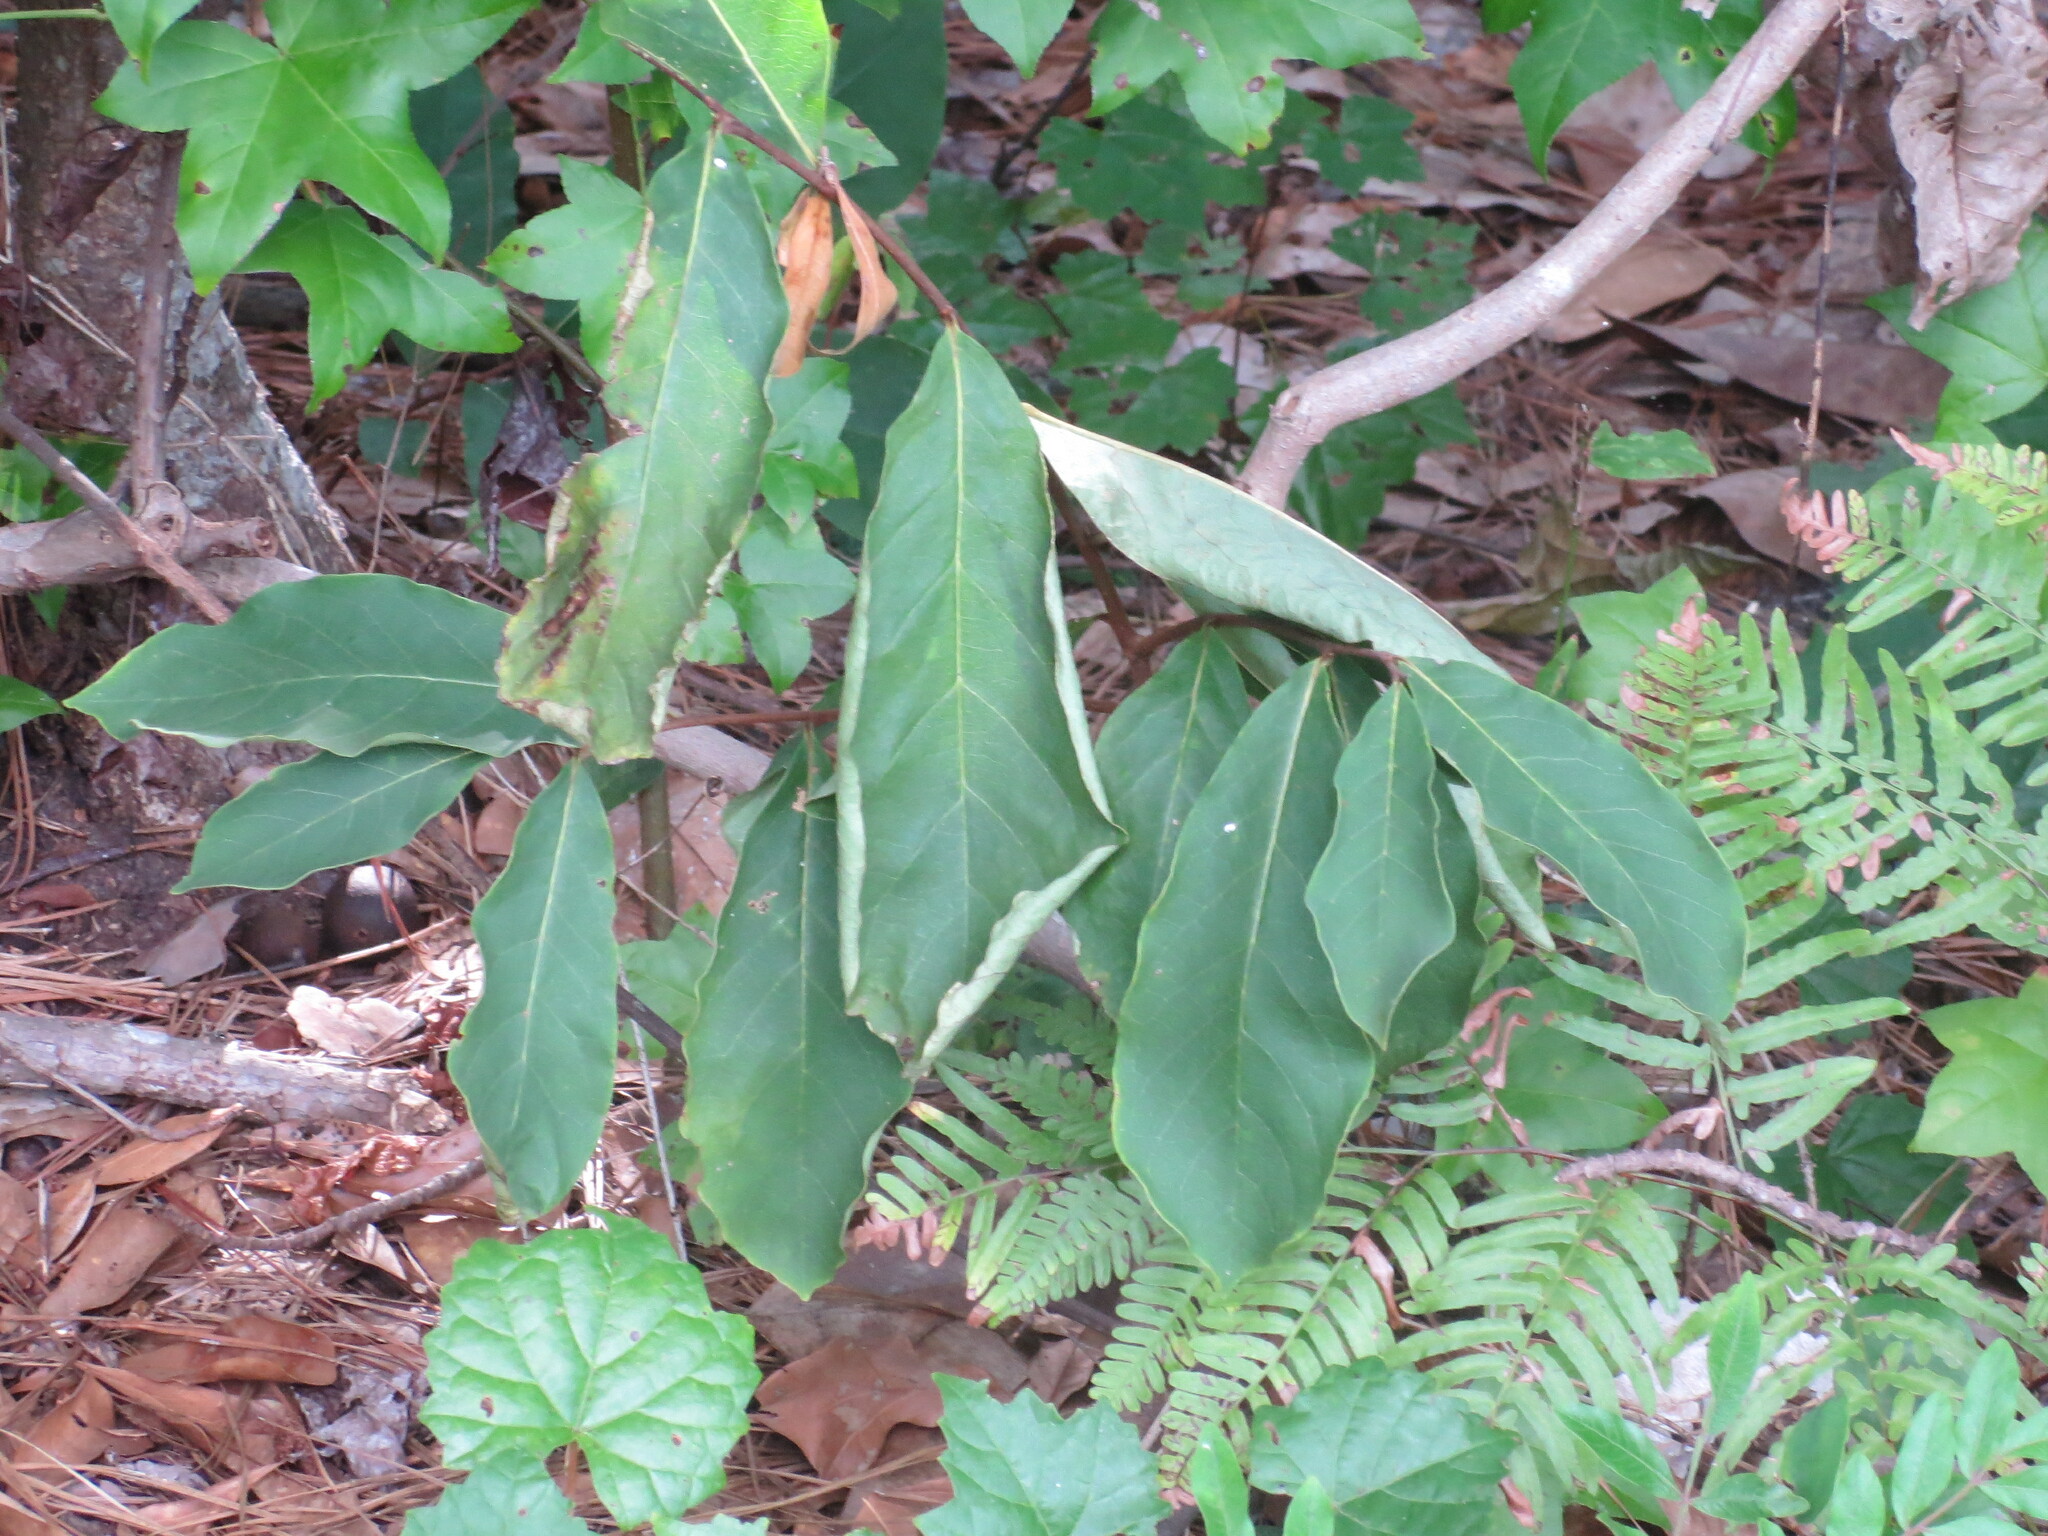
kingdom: Plantae
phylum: Tracheophyta
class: Magnoliopsida
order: Magnoliales
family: Annonaceae
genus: Asimina
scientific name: Asimina parviflora
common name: Dwarf pawpaw
